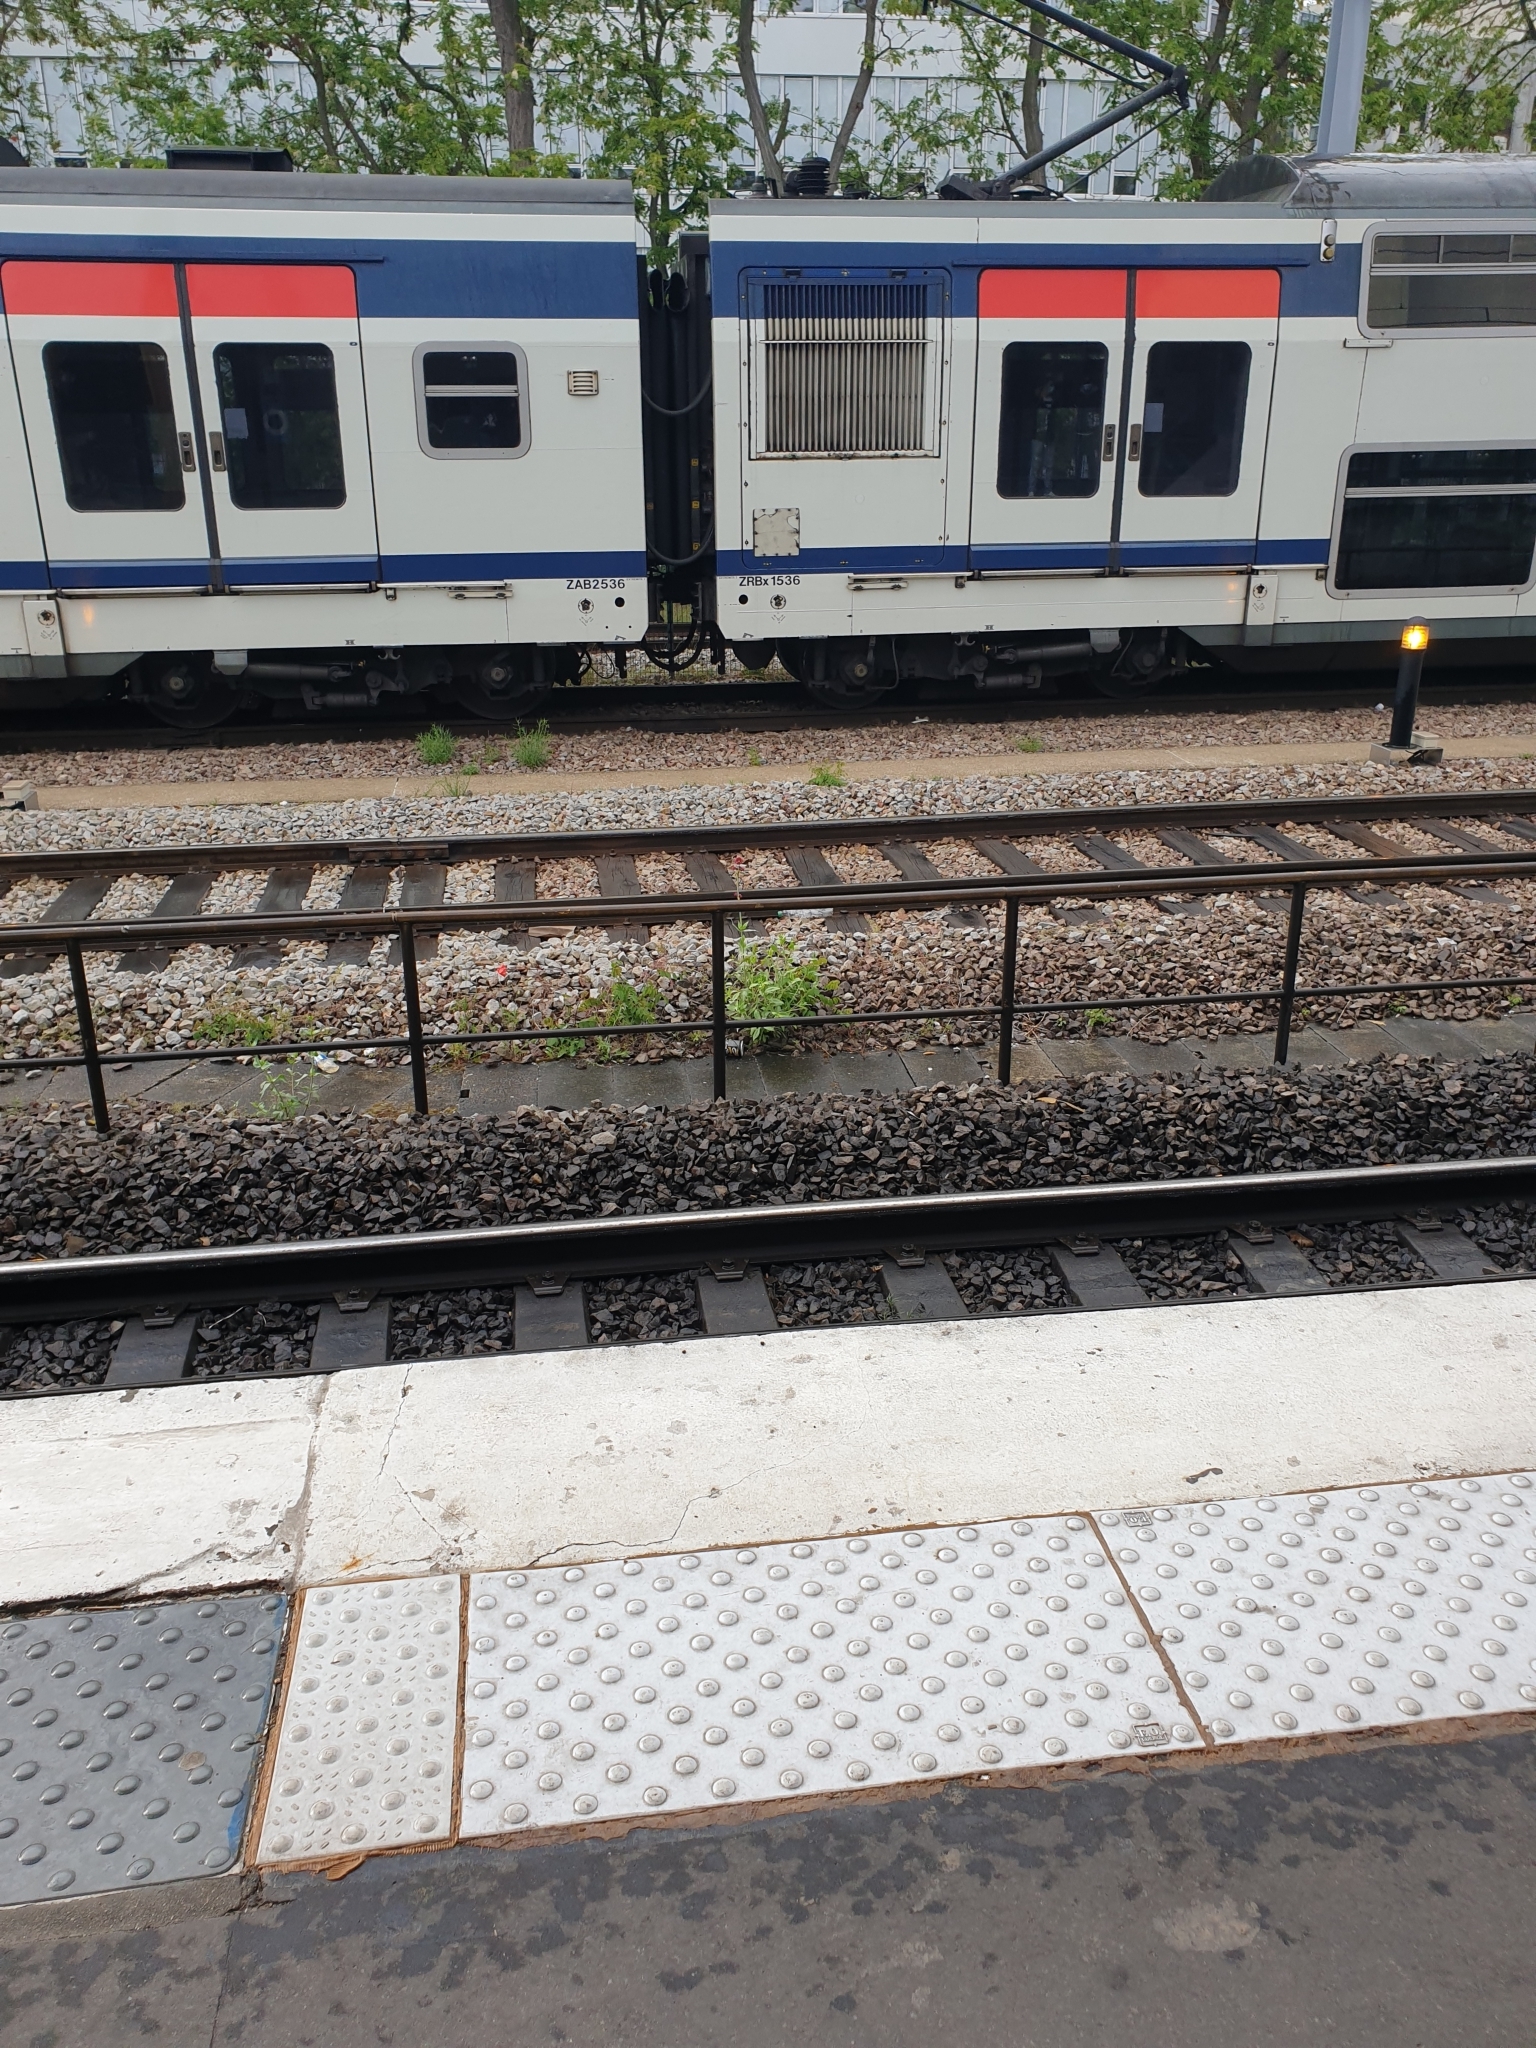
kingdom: Plantae
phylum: Tracheophyta
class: Magnoliopsida
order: Dipsacales
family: Caprifoliaceae
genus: Centranthus
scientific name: Centranthus ruber
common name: Red valerian
